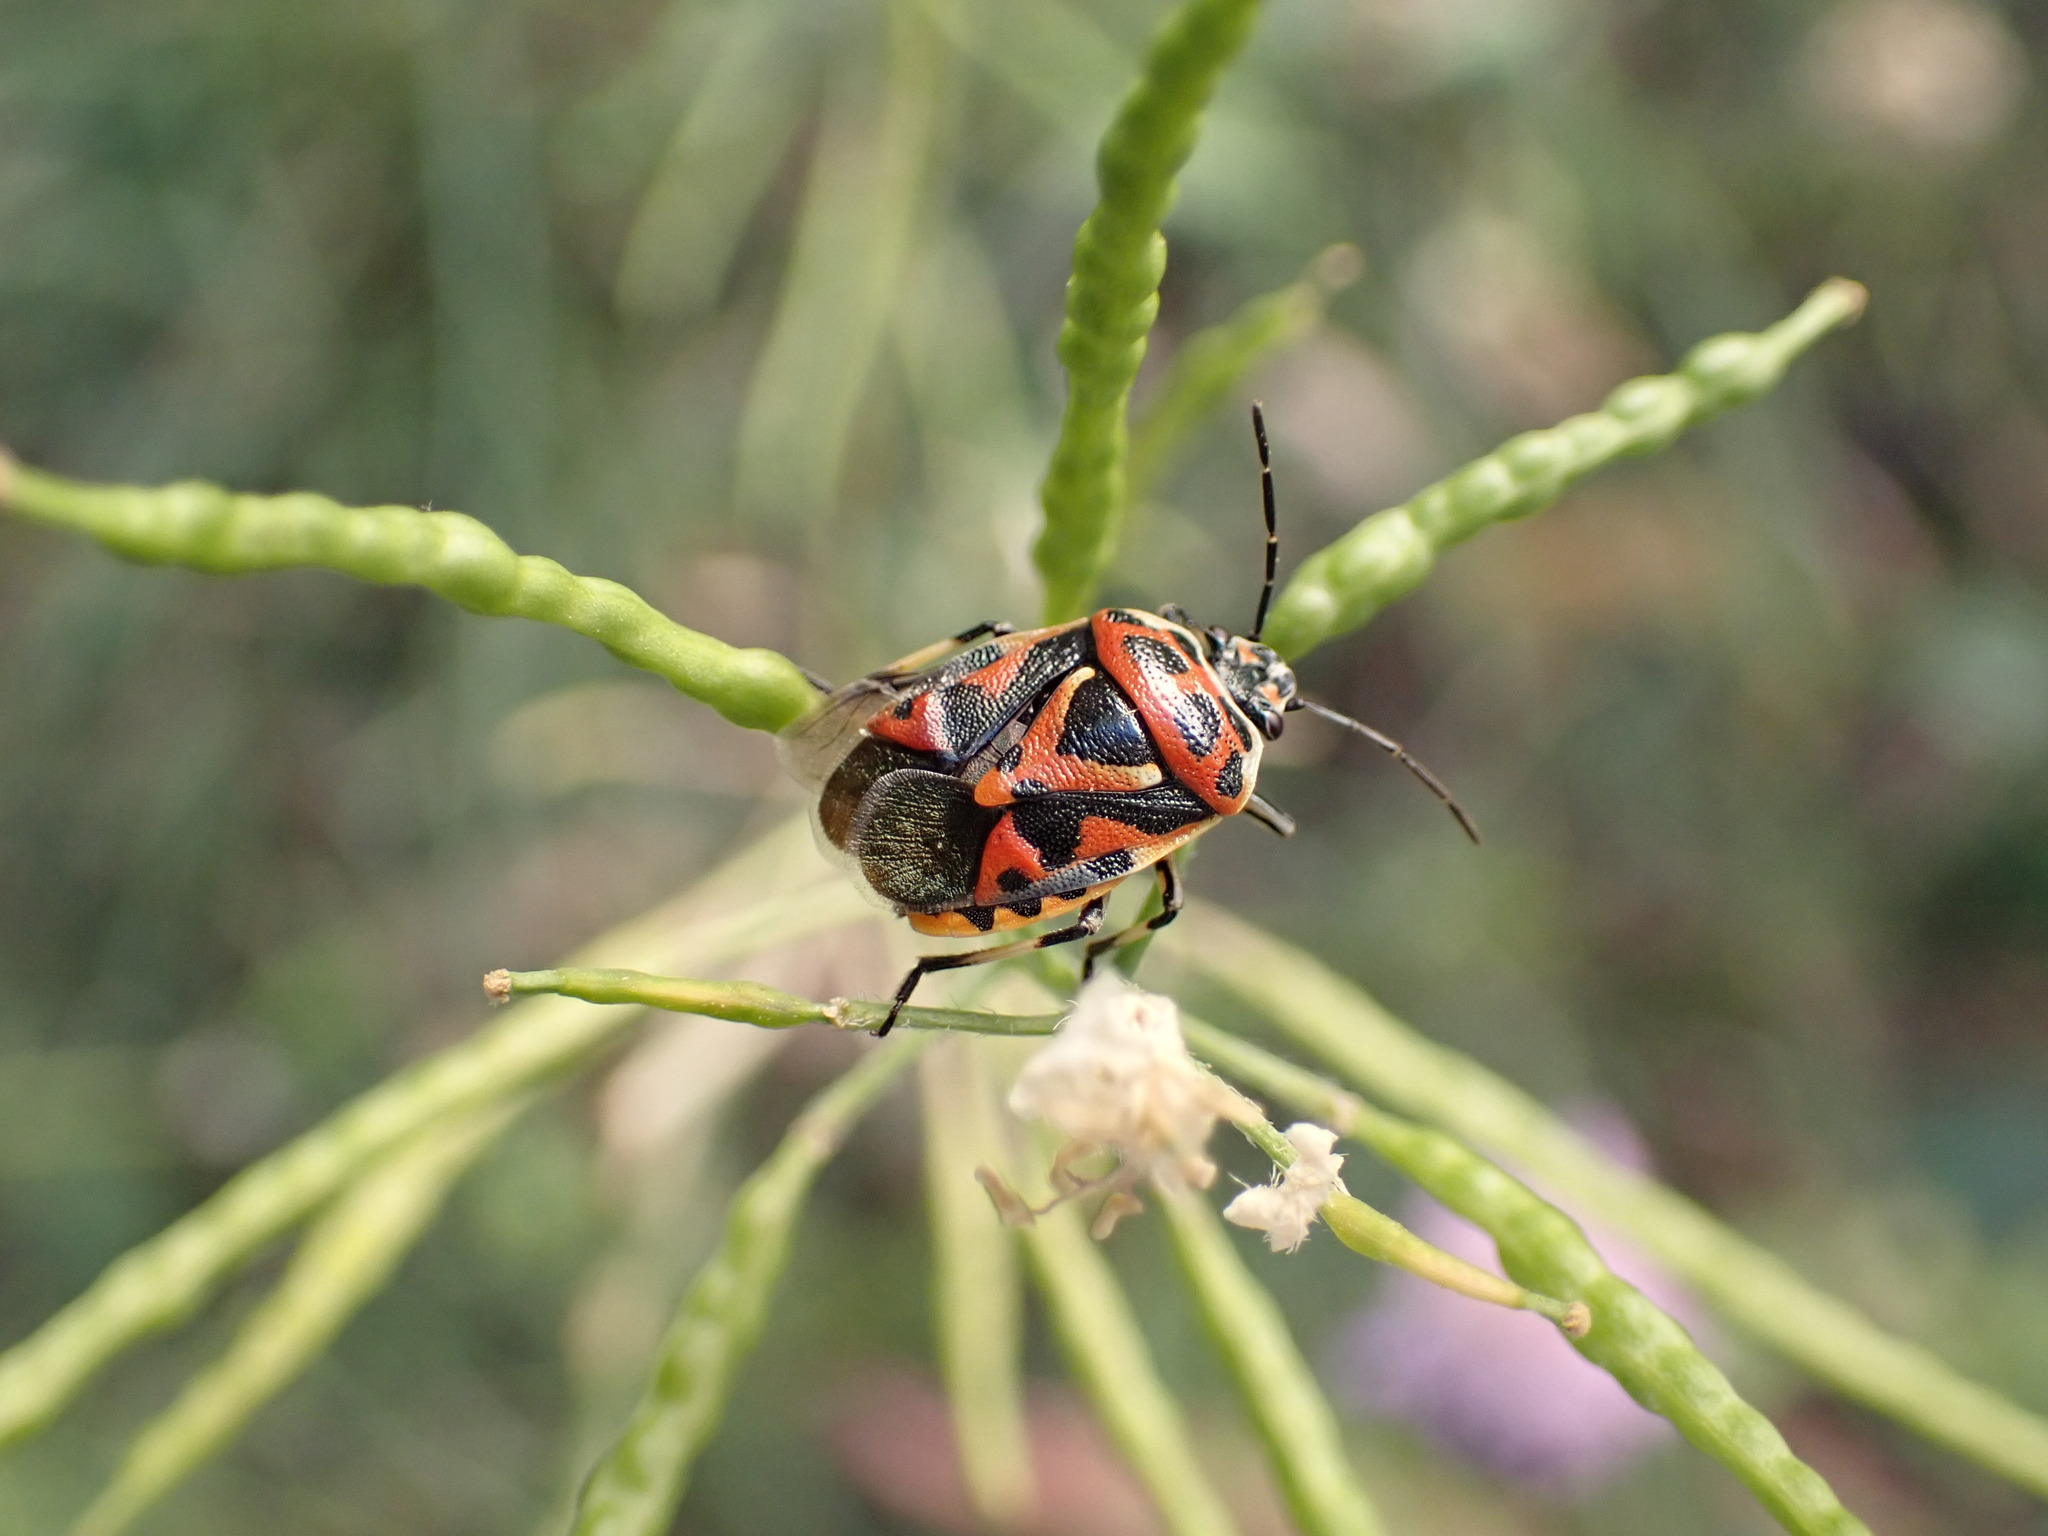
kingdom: Animalia
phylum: Arthropoda
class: Insecta
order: Hemiptera
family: Pentatomidae
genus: Eurydema
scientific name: Eurydema ornata
